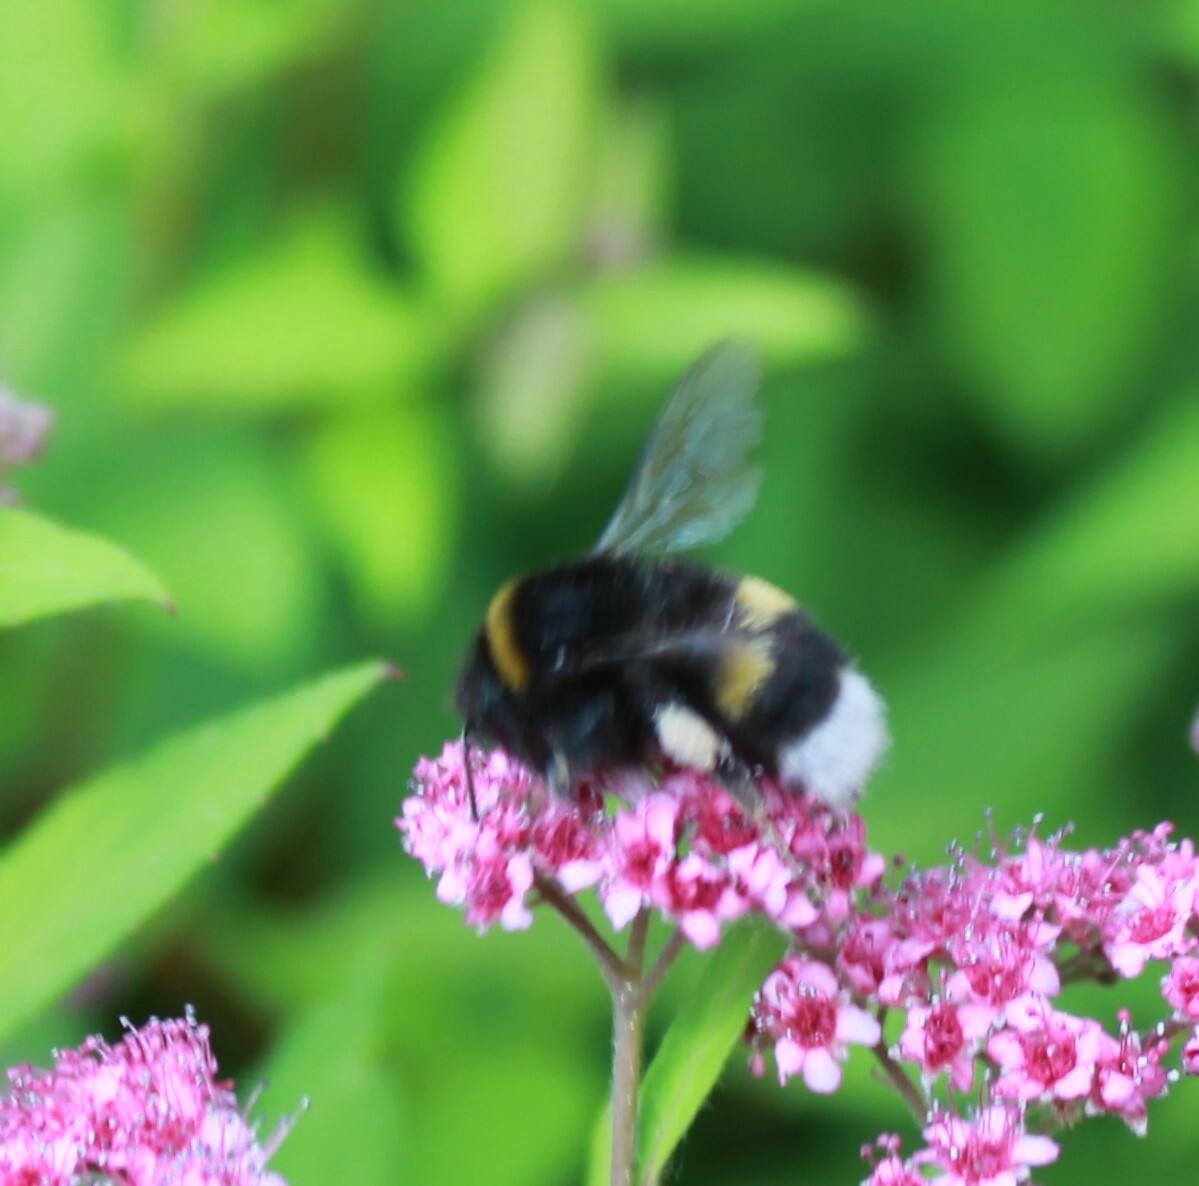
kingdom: Animalia
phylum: Arthropoda
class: Insecta
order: Hymenoptera
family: Apidae
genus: Bombus
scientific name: Bombus
